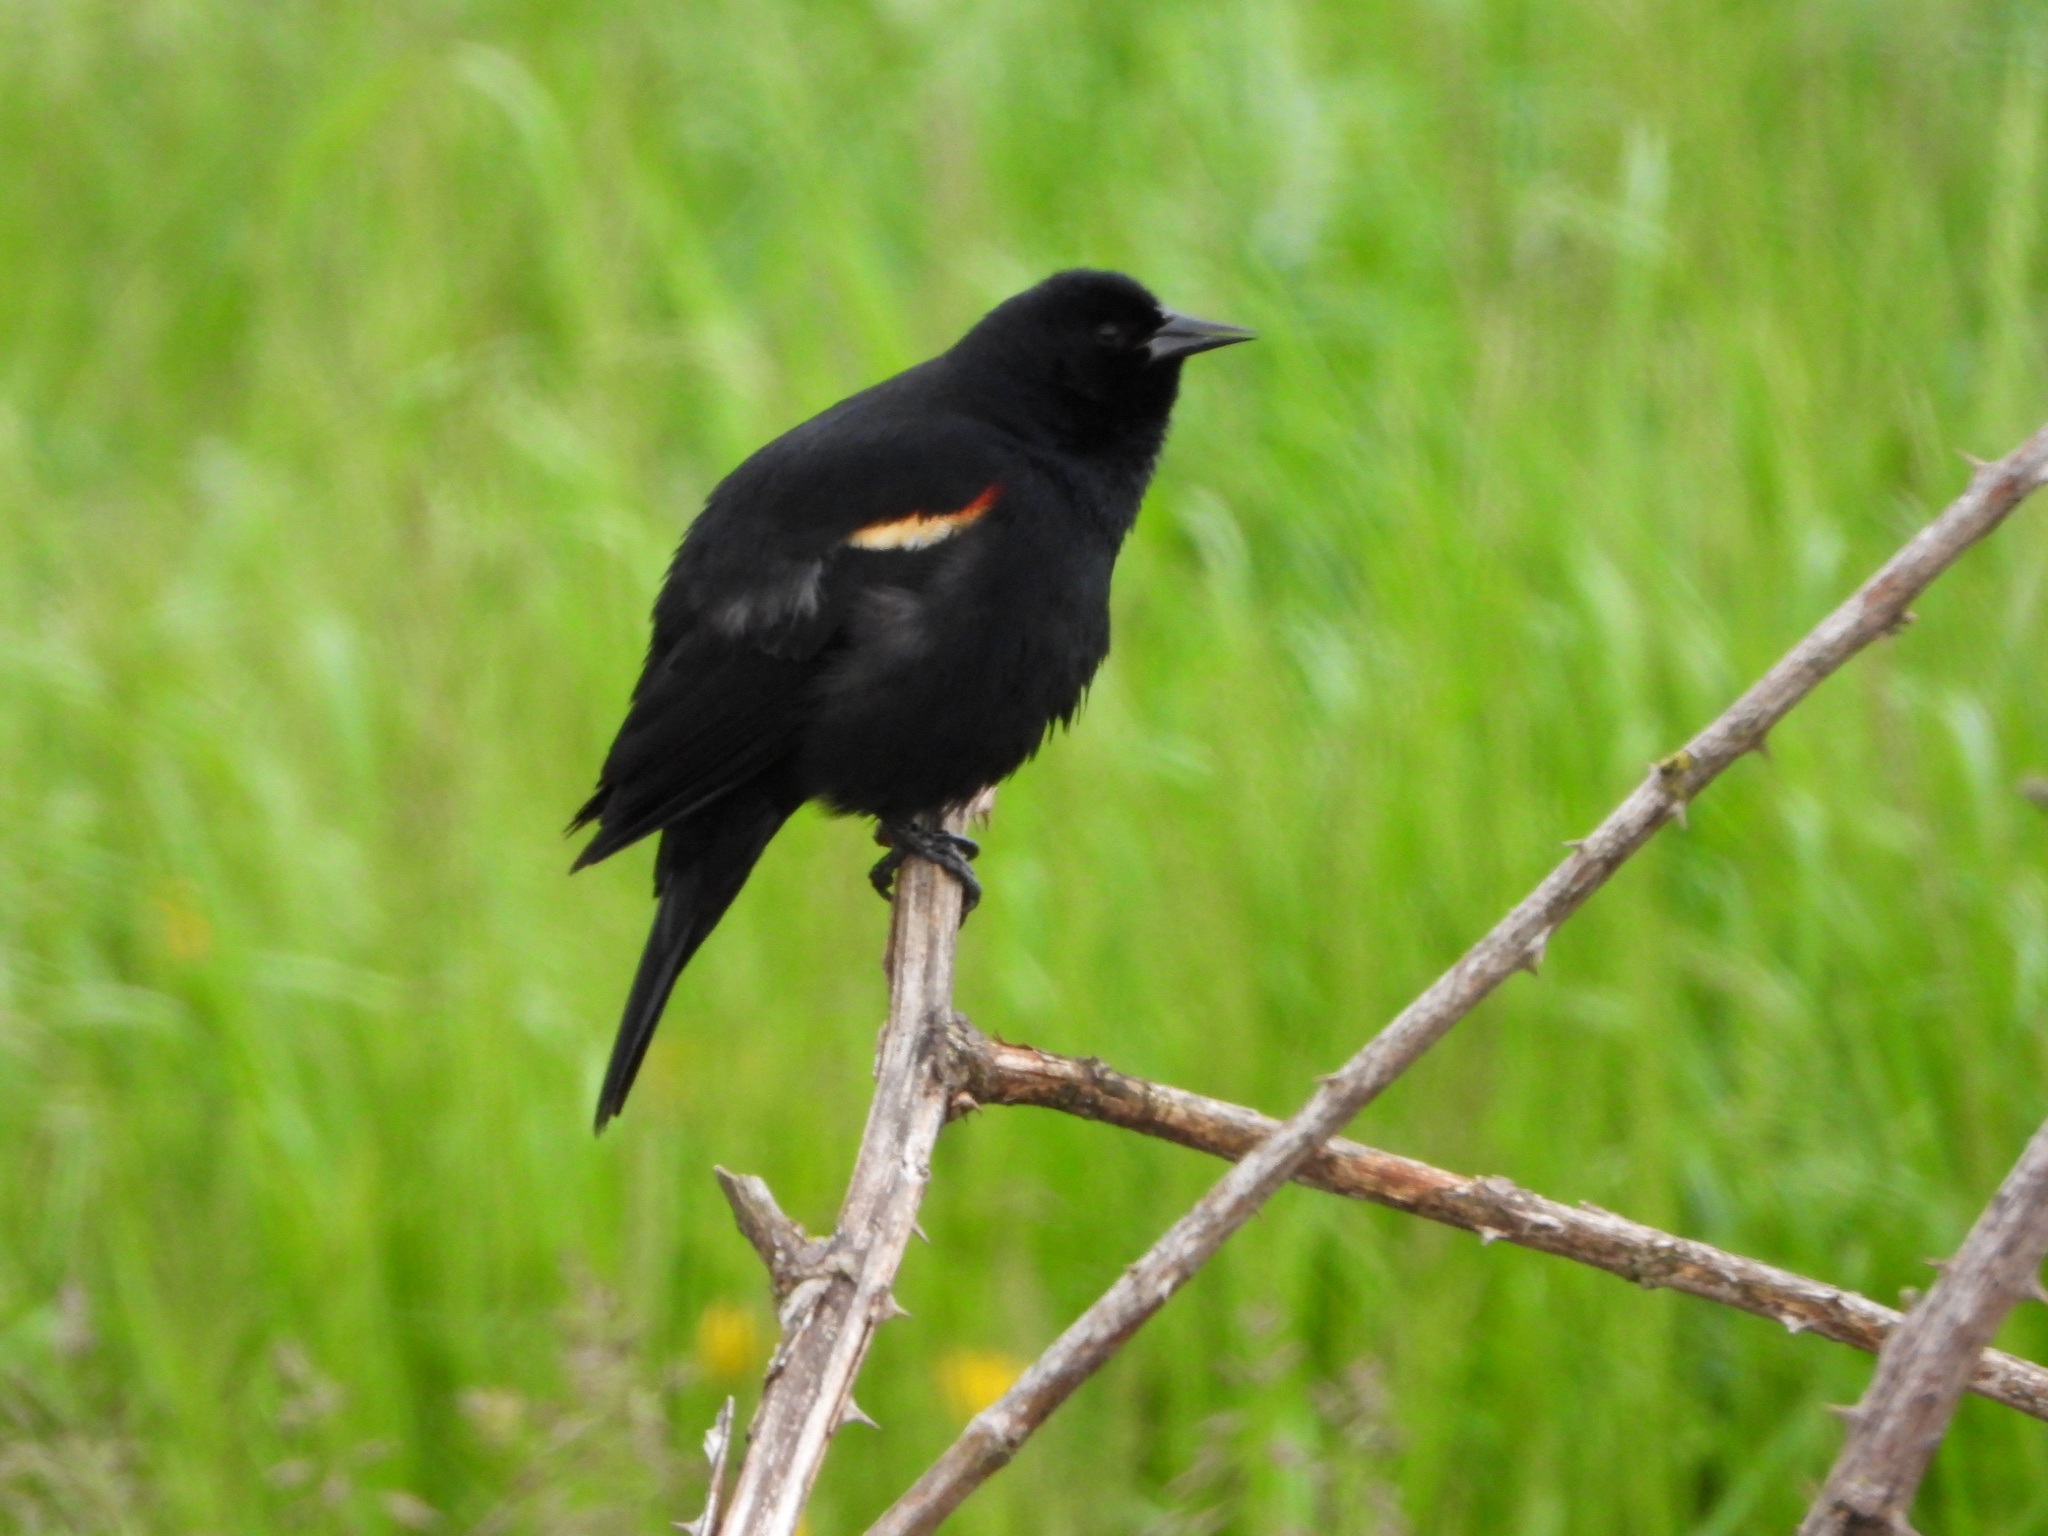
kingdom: Animalia
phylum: Chordata
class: Aves
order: Passeriformes
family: Icteridae
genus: Agelaius
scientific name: Agelaius phoeniceus
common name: Red-winged blackbird
